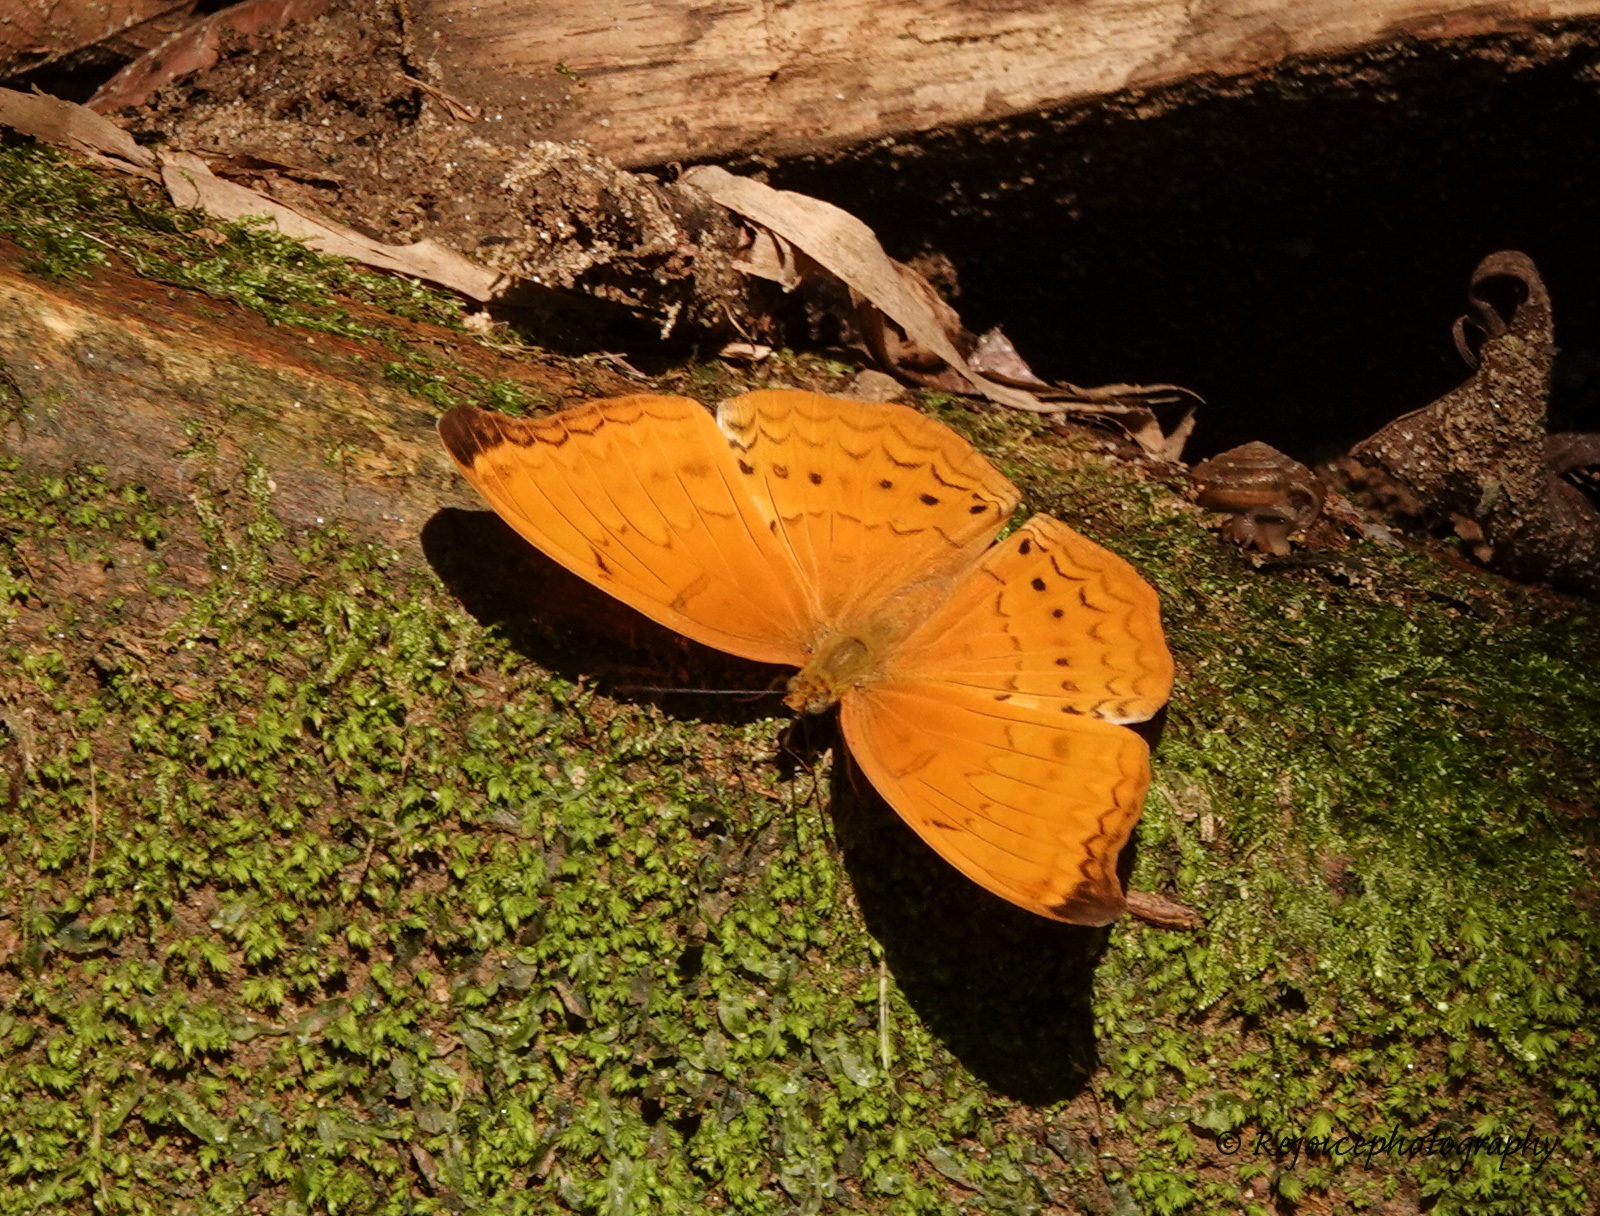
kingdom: Animalia
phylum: Arthropoda
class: Insecta
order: Lepidoptera
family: Nymphalidae
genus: Cirrochroa
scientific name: Cirrochroa aoris
